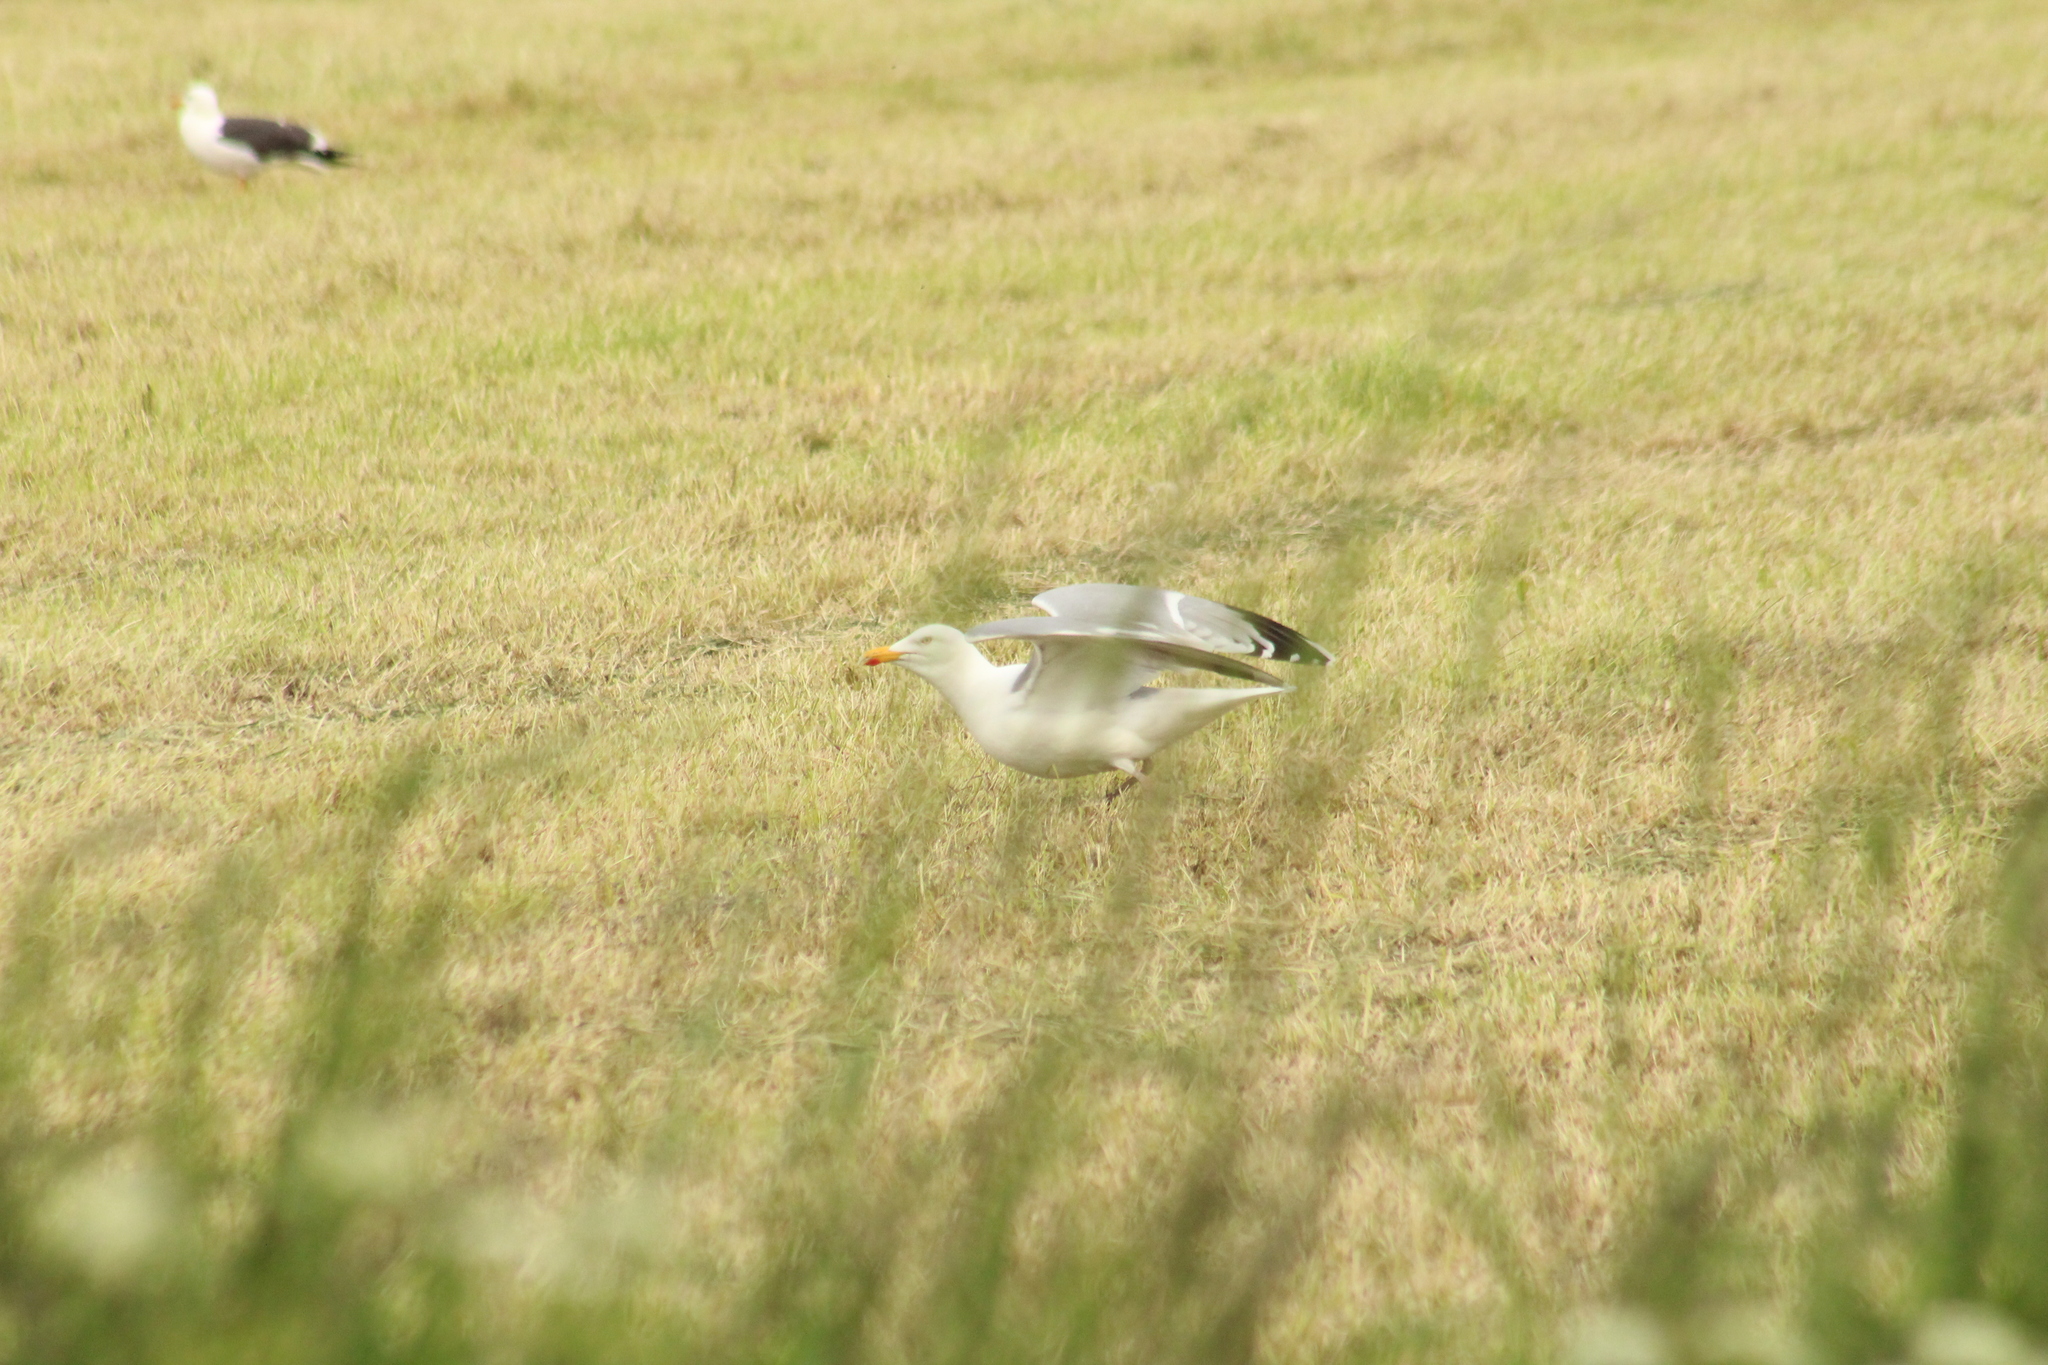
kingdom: Animalia
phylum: Chordata
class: Aves
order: Charadriiformes
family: Laridae
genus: Larus
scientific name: Larus argentatus
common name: Herring gull
